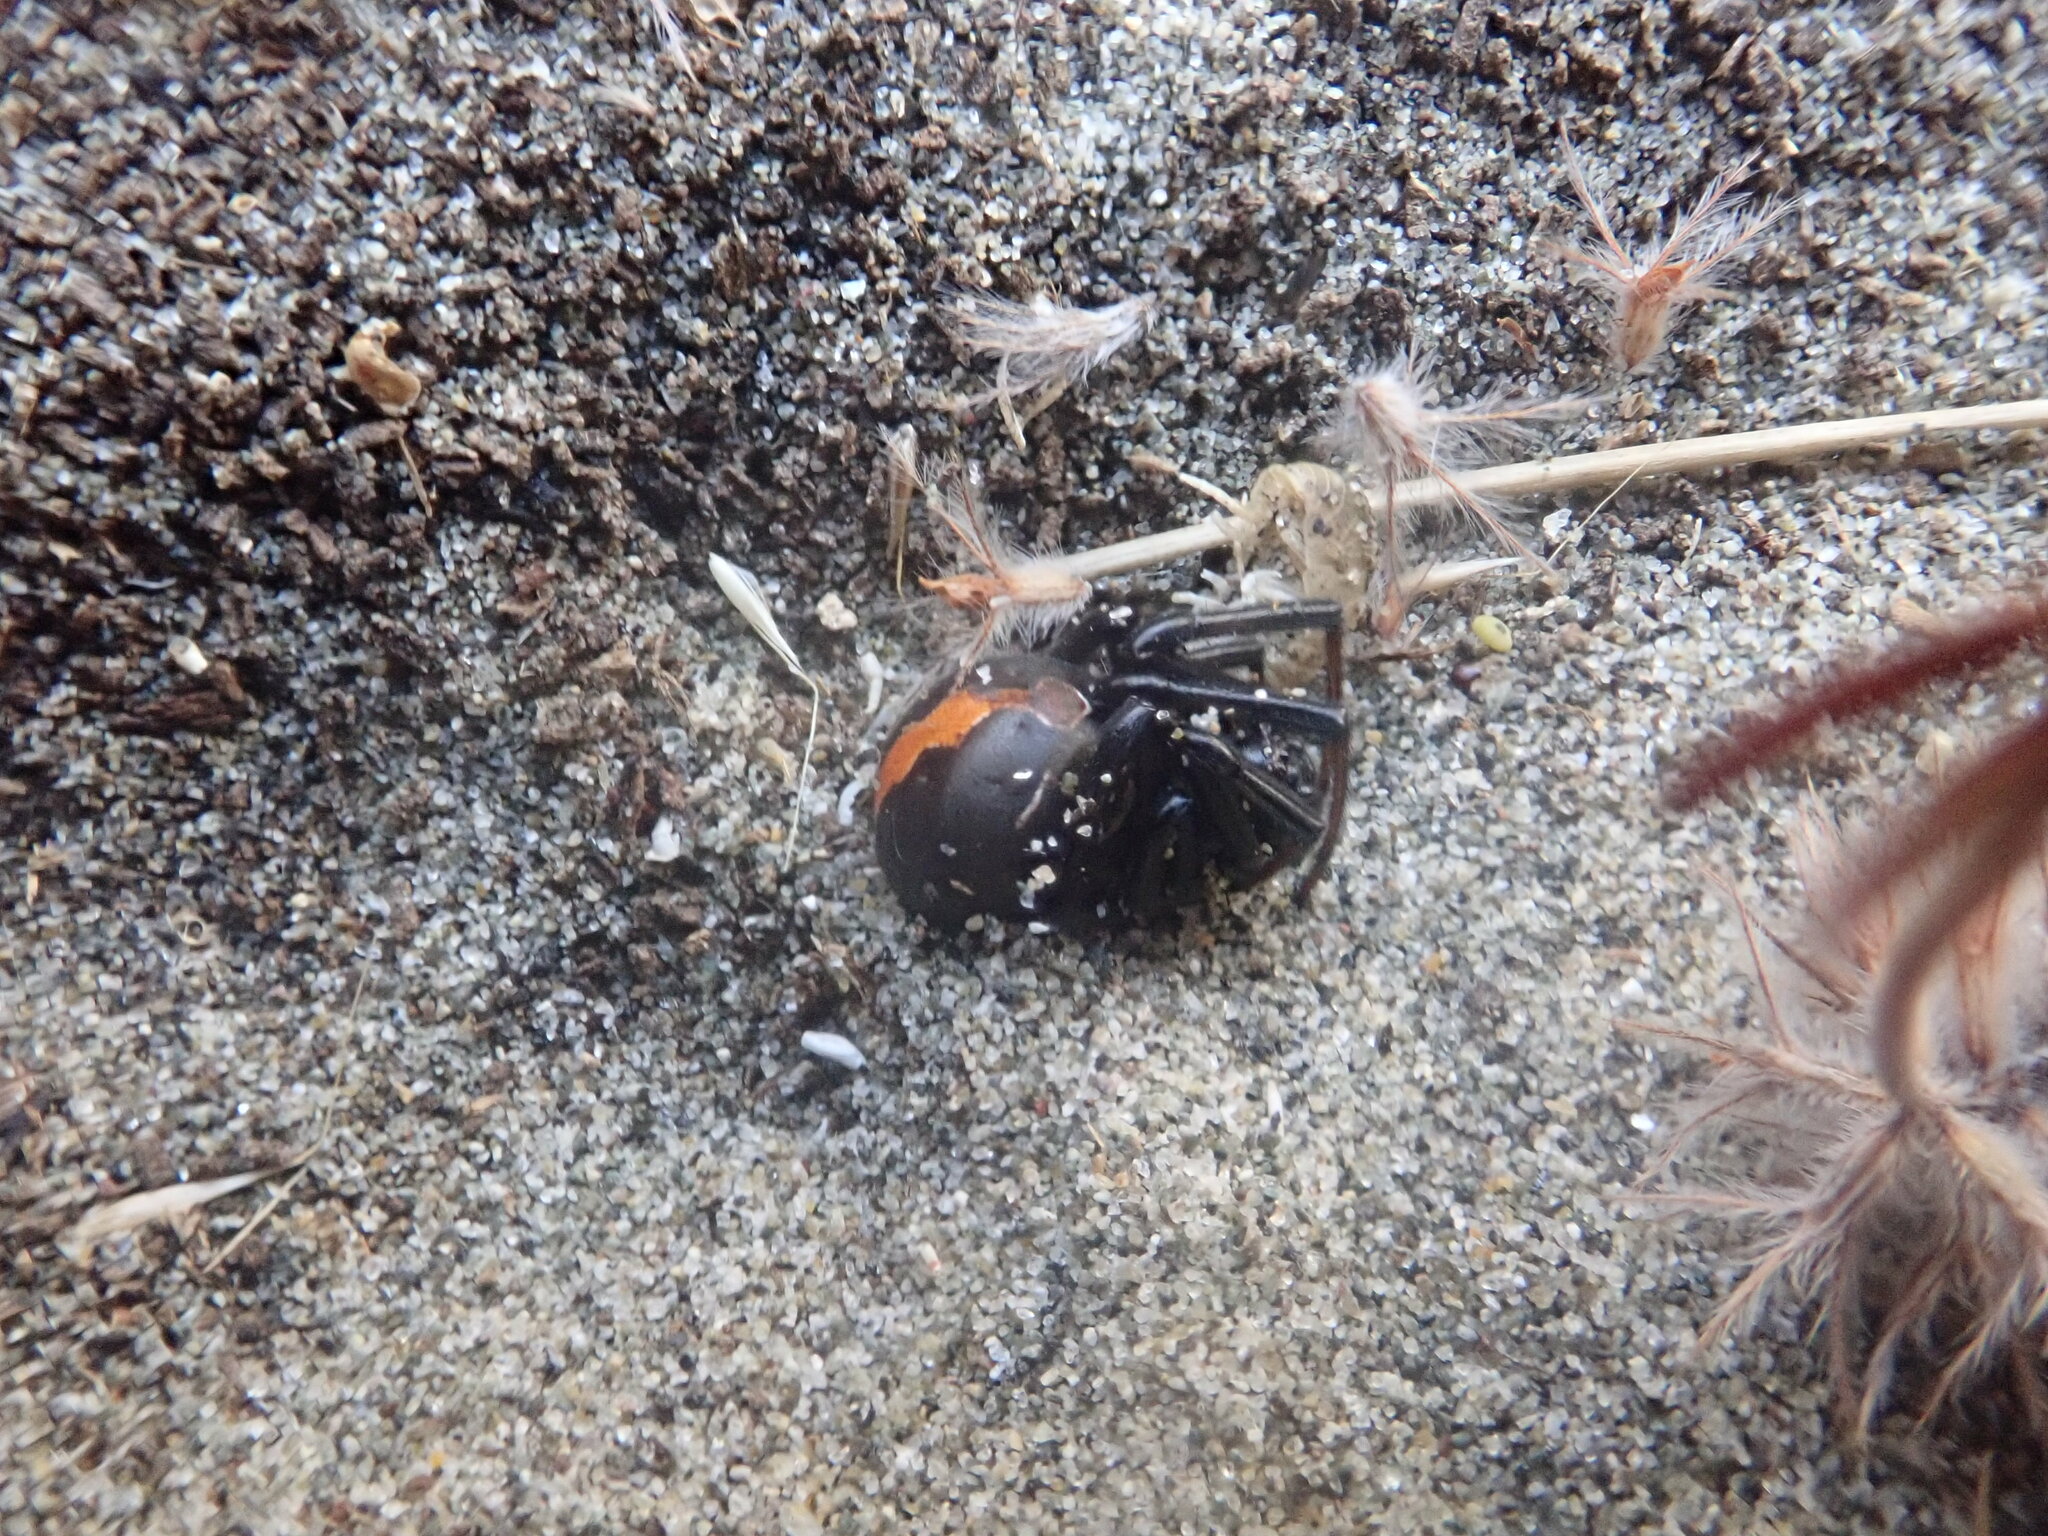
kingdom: Animalia
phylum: Arthropoda
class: Arachnida
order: Araneae
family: Theridiidae
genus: Latrodectus
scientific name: Latrodectus katipo
